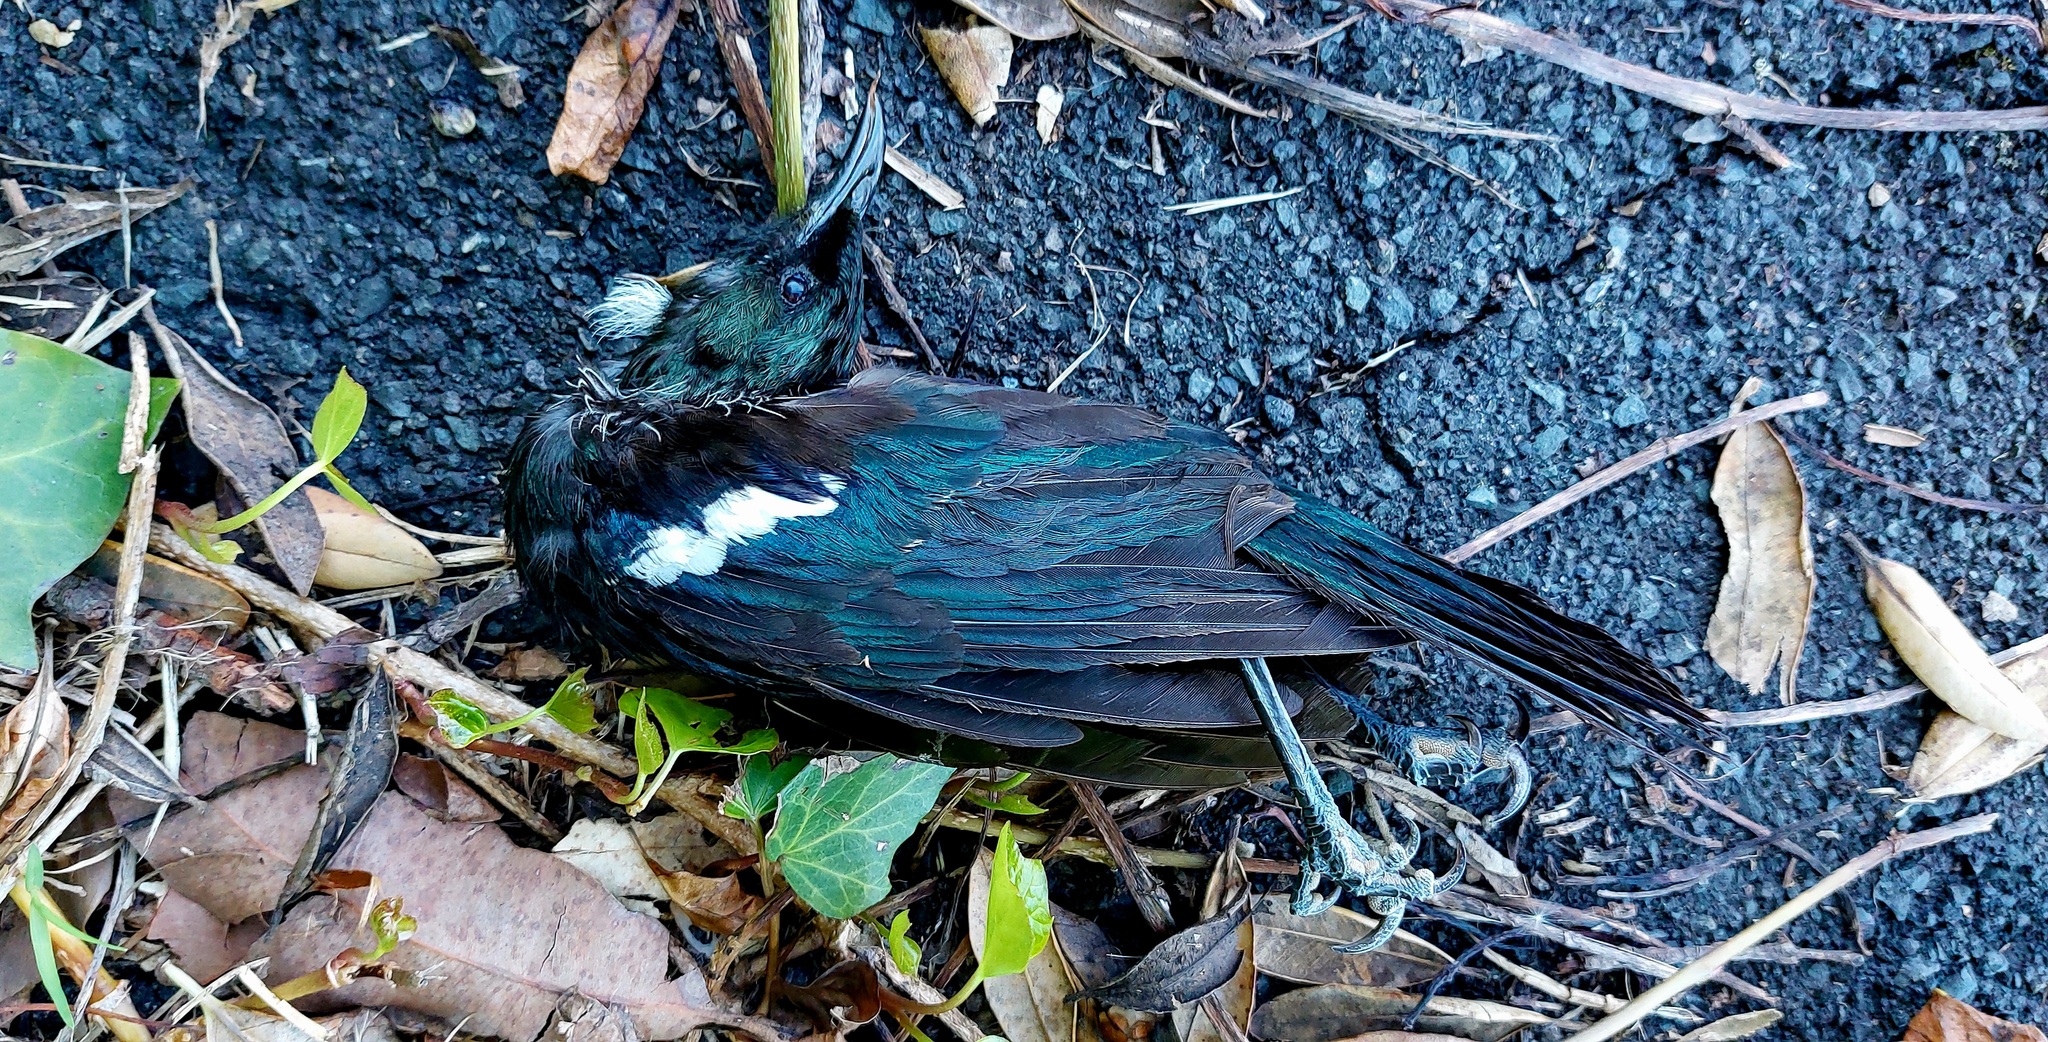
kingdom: Animalia
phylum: Chordata
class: Aves
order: Passeriformes
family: Meliphagidae
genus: Prosthemadera
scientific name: Prosthemadera novaeseelandiae
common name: Tui
